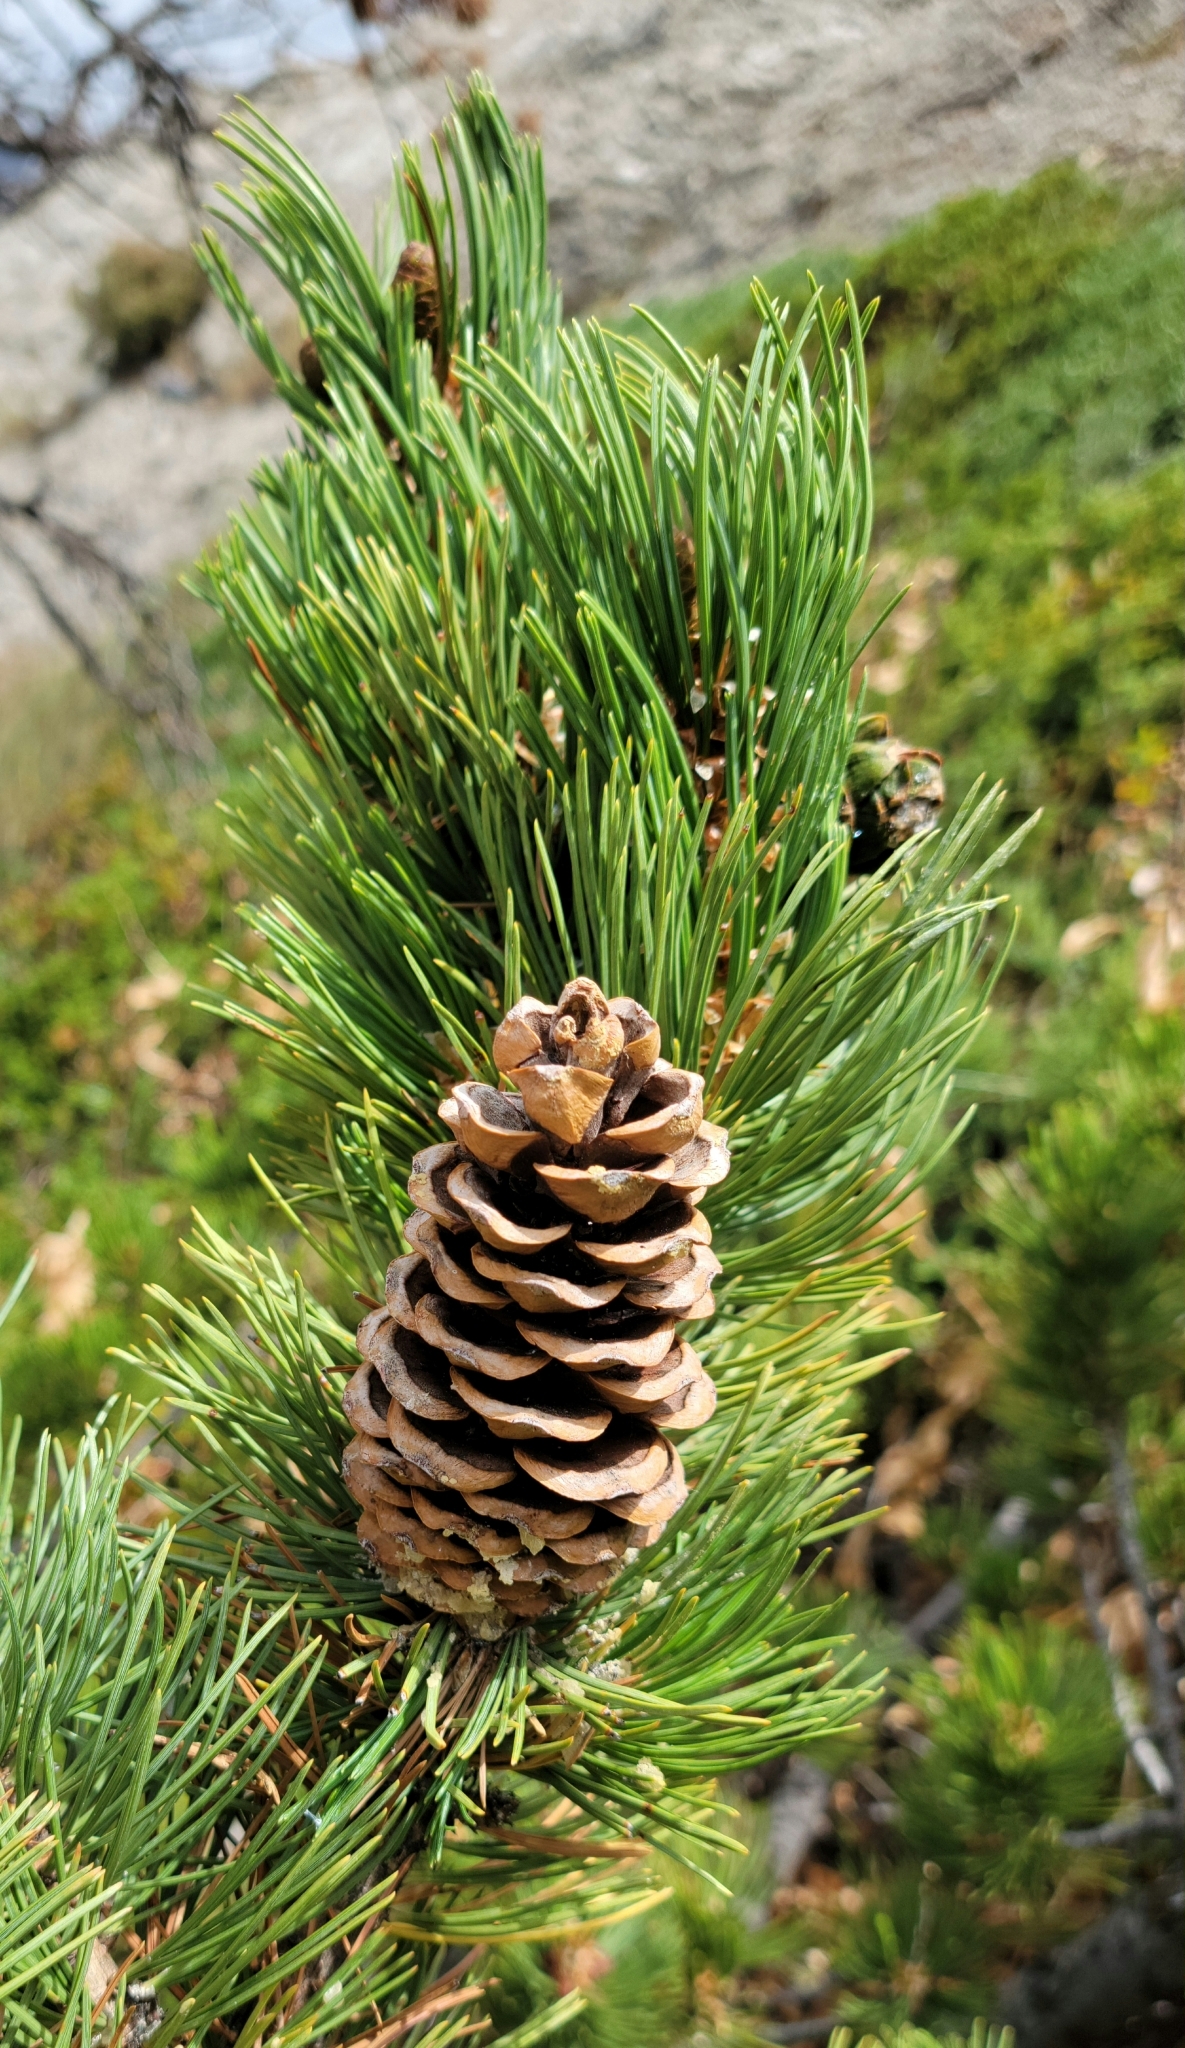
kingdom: Plantae
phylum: Tracheophyta
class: Pinopsida
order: Pinales
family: Pinaceae
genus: Pinus
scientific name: Pinus flexilis
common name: Limber pine
